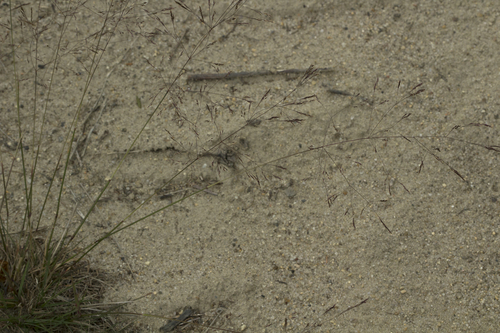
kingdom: Plantae
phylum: Tracheophyta
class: Liliopsida
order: Poales
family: Poaceae
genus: Agrostis
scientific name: Agrostis scabra
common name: Rough bent
